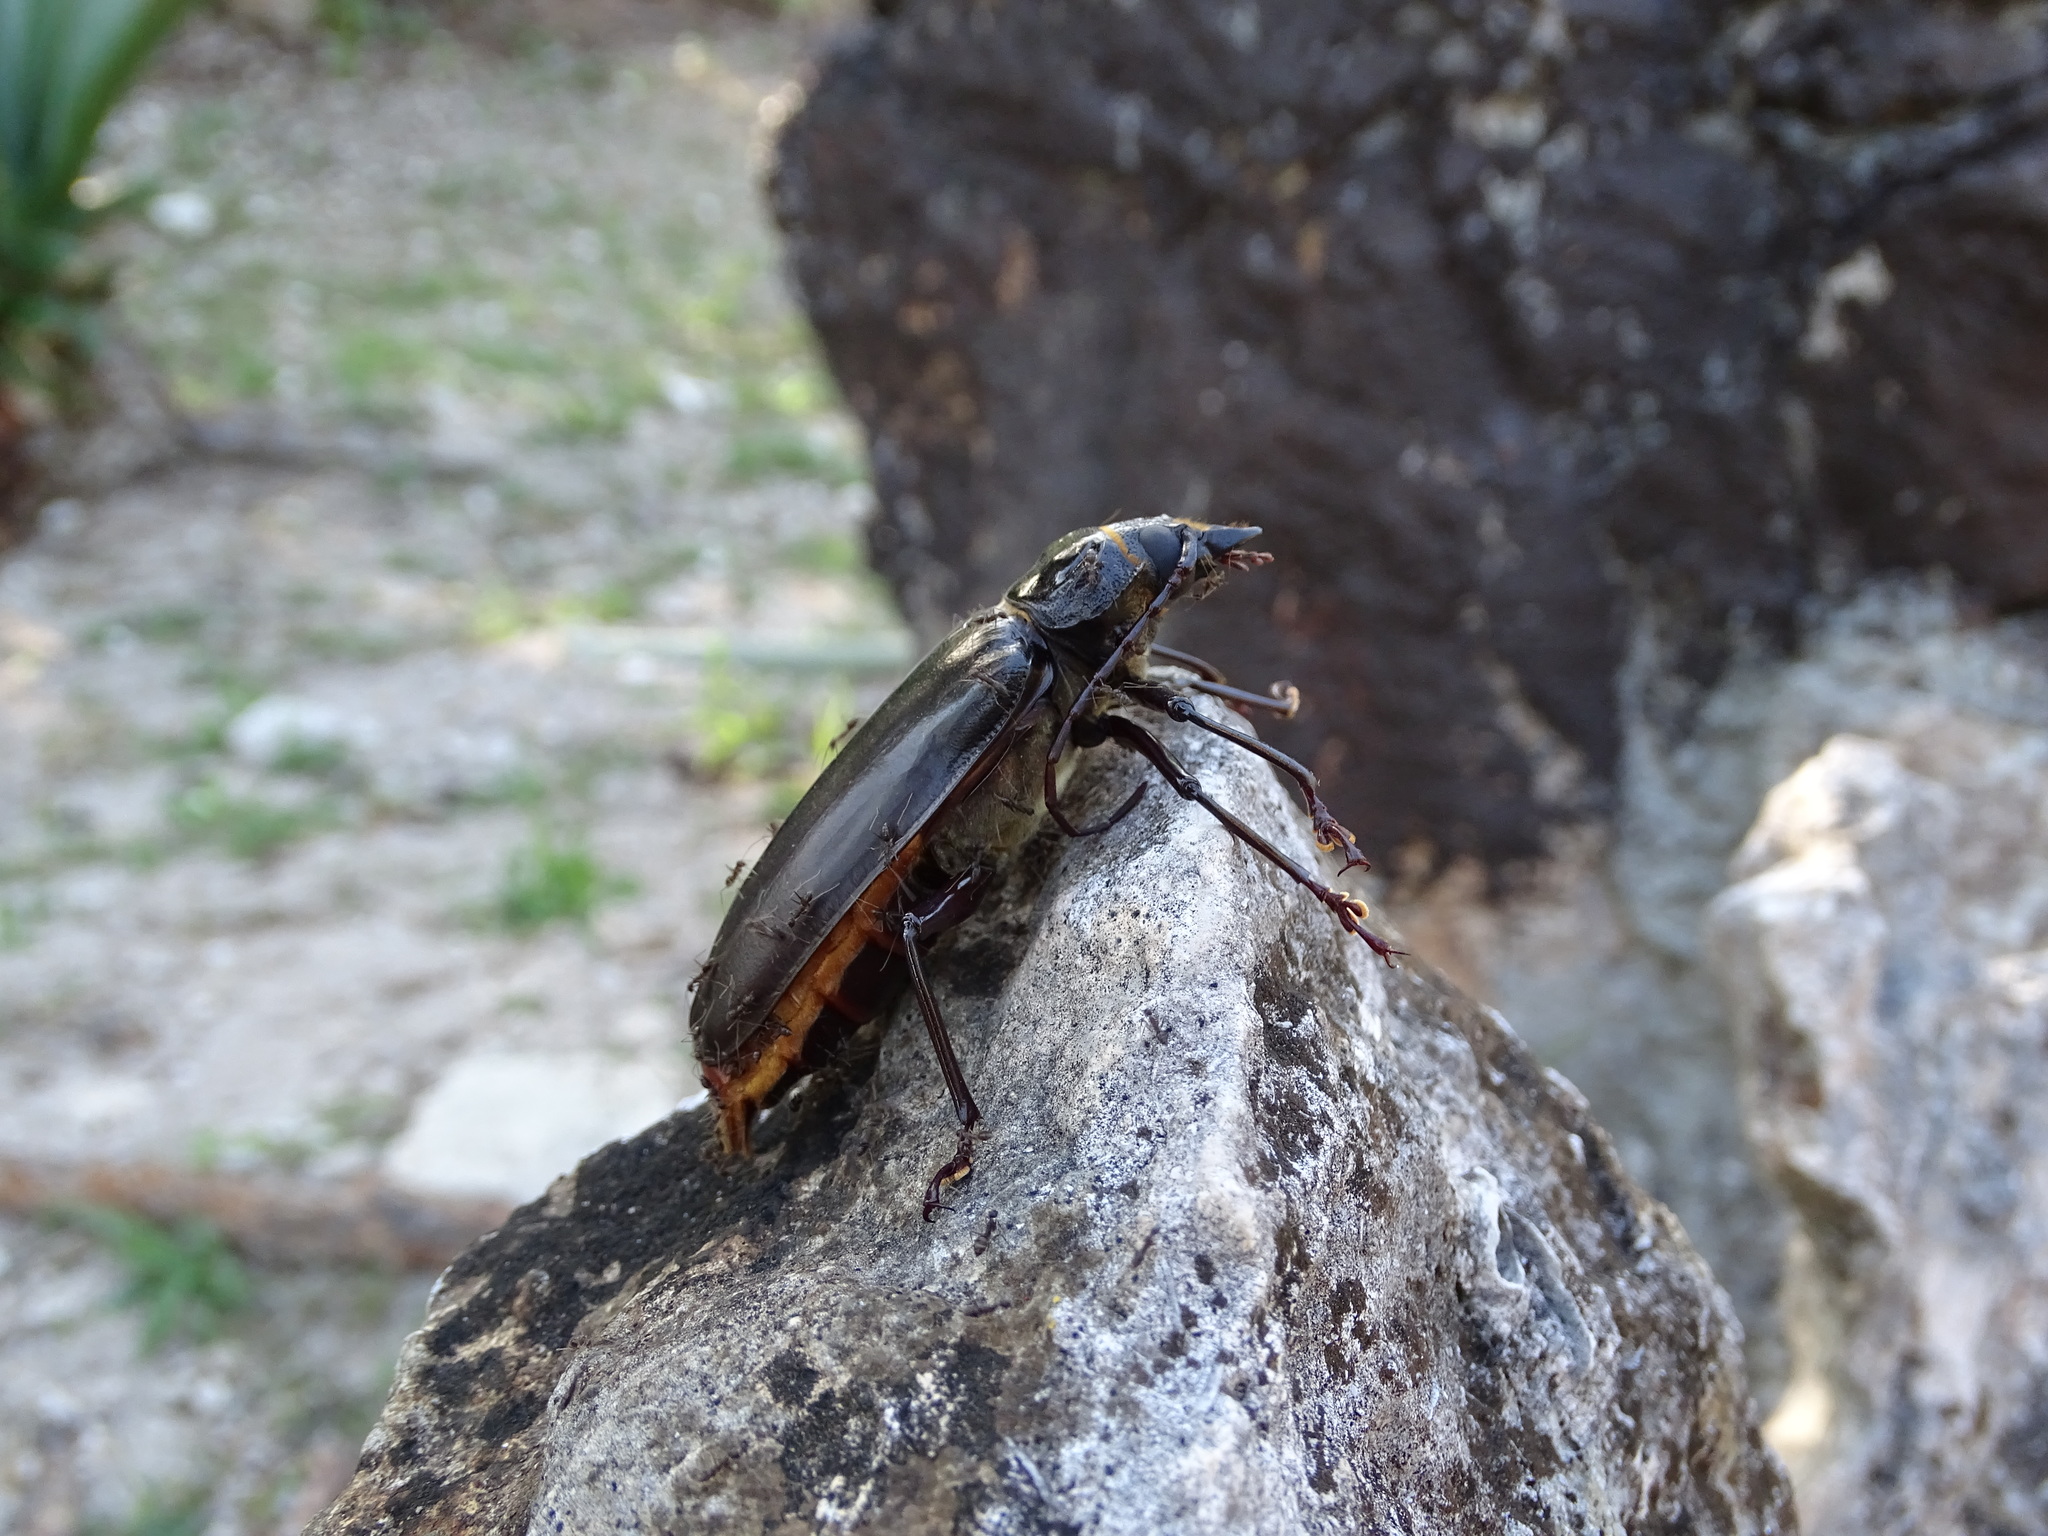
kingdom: Animalia
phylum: Arthropoda
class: Insecta
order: Coleoptera
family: Cerambycidae
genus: Stenodontes
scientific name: Stenodontes chevrolati
